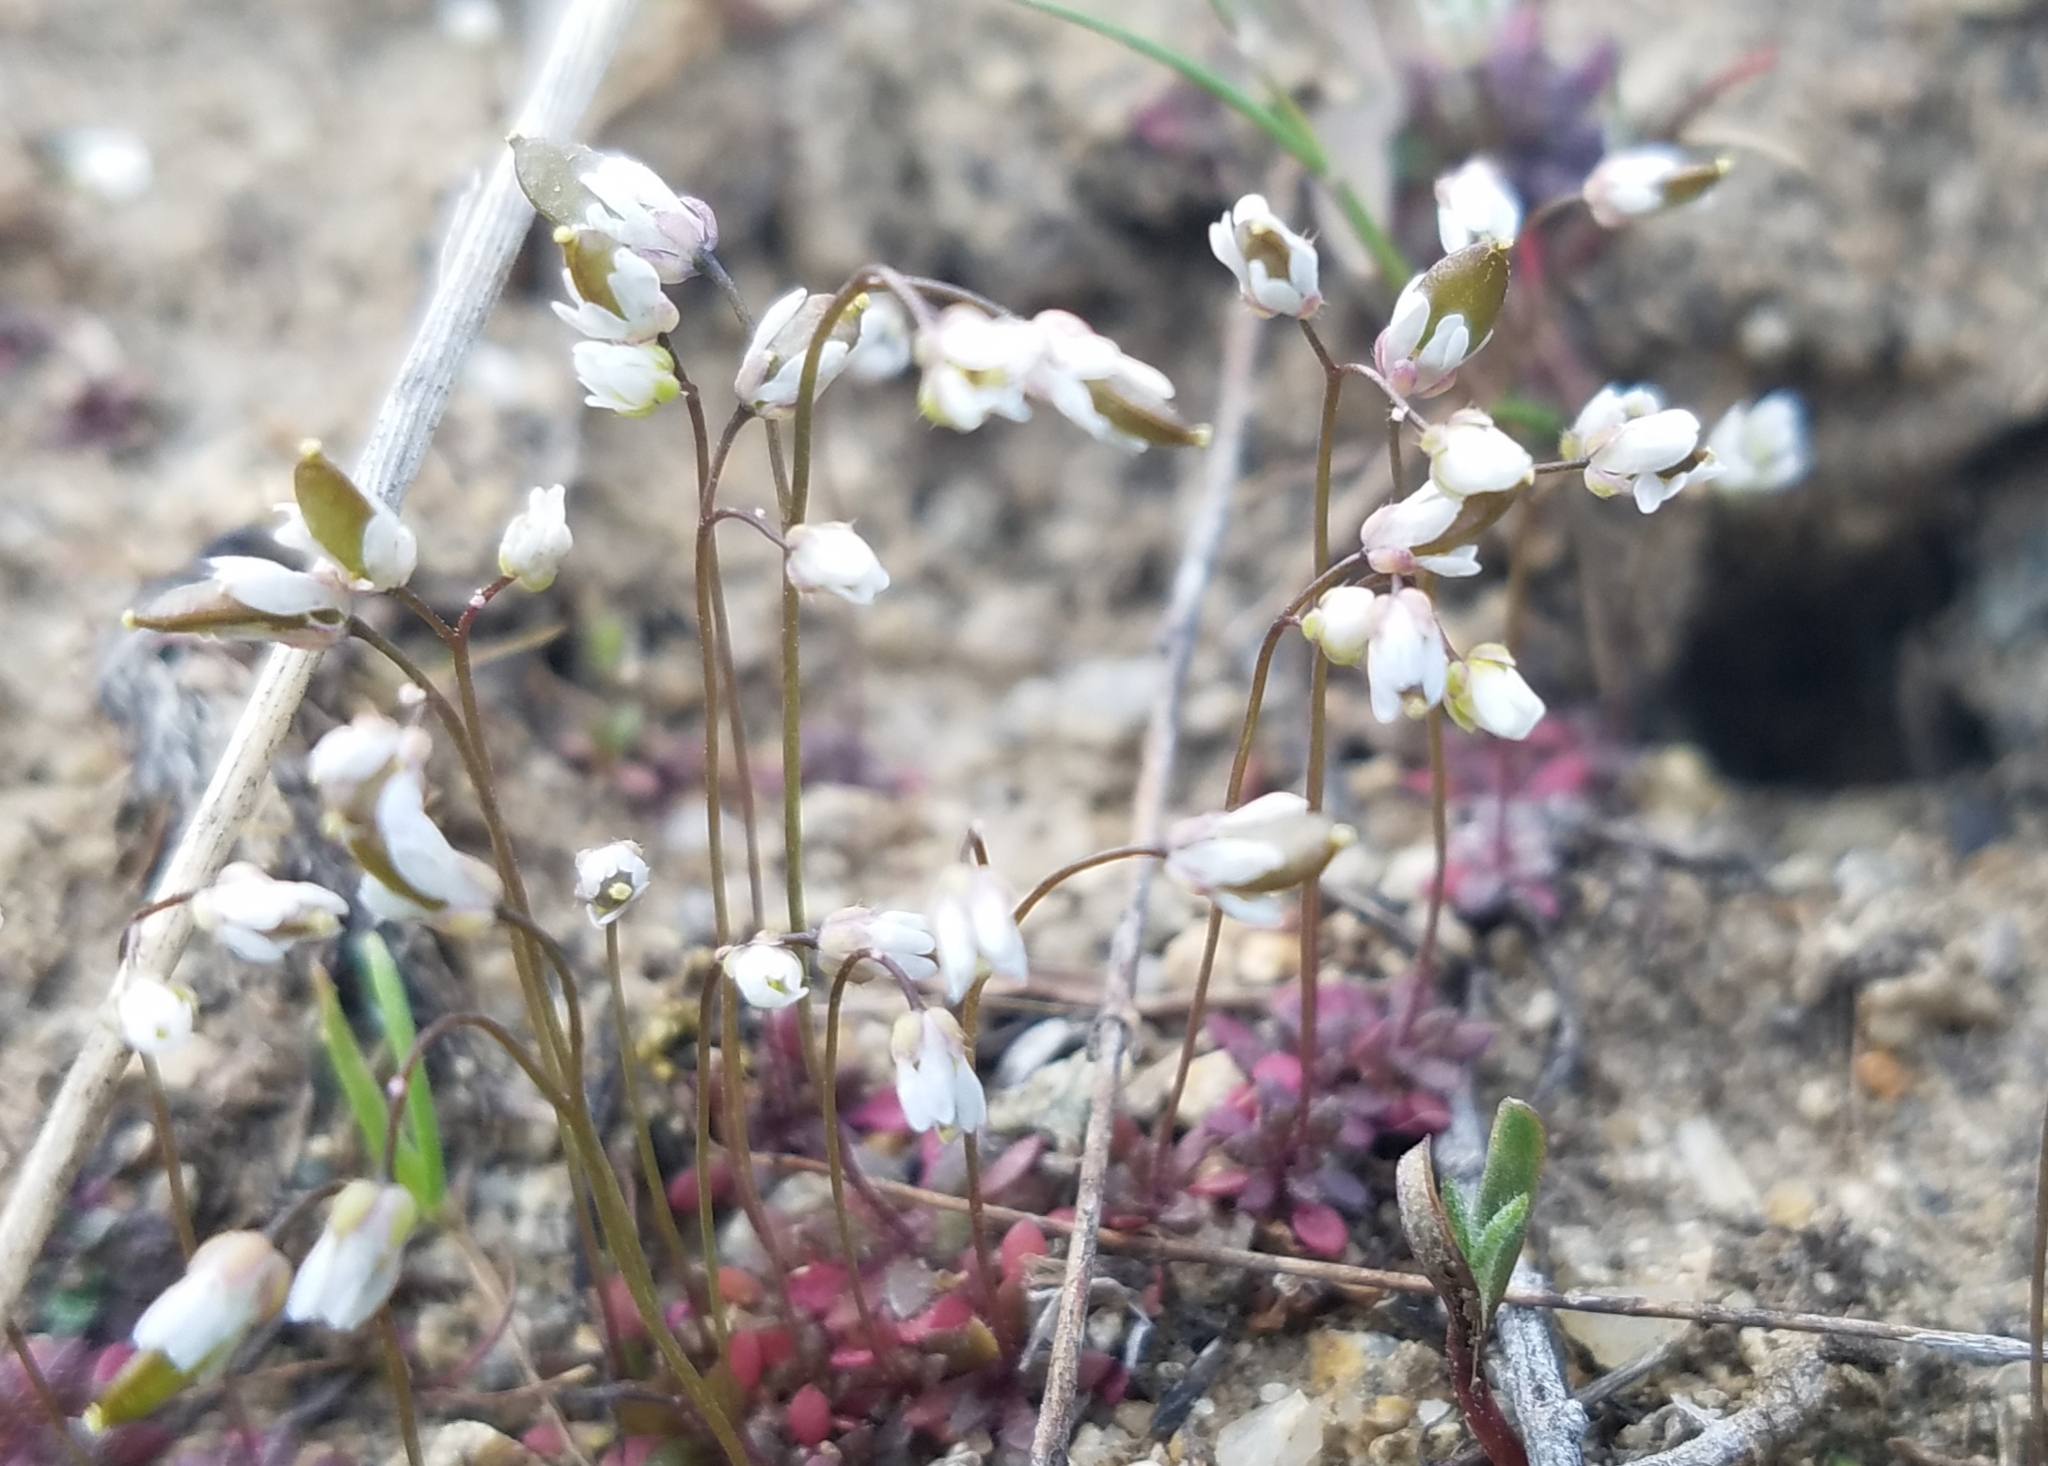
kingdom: Plantae
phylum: Tracheophyta
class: Magnoliopsida
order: Brassicales
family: Brassicaceae
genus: Draba
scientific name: Draba verna
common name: Spring draba
